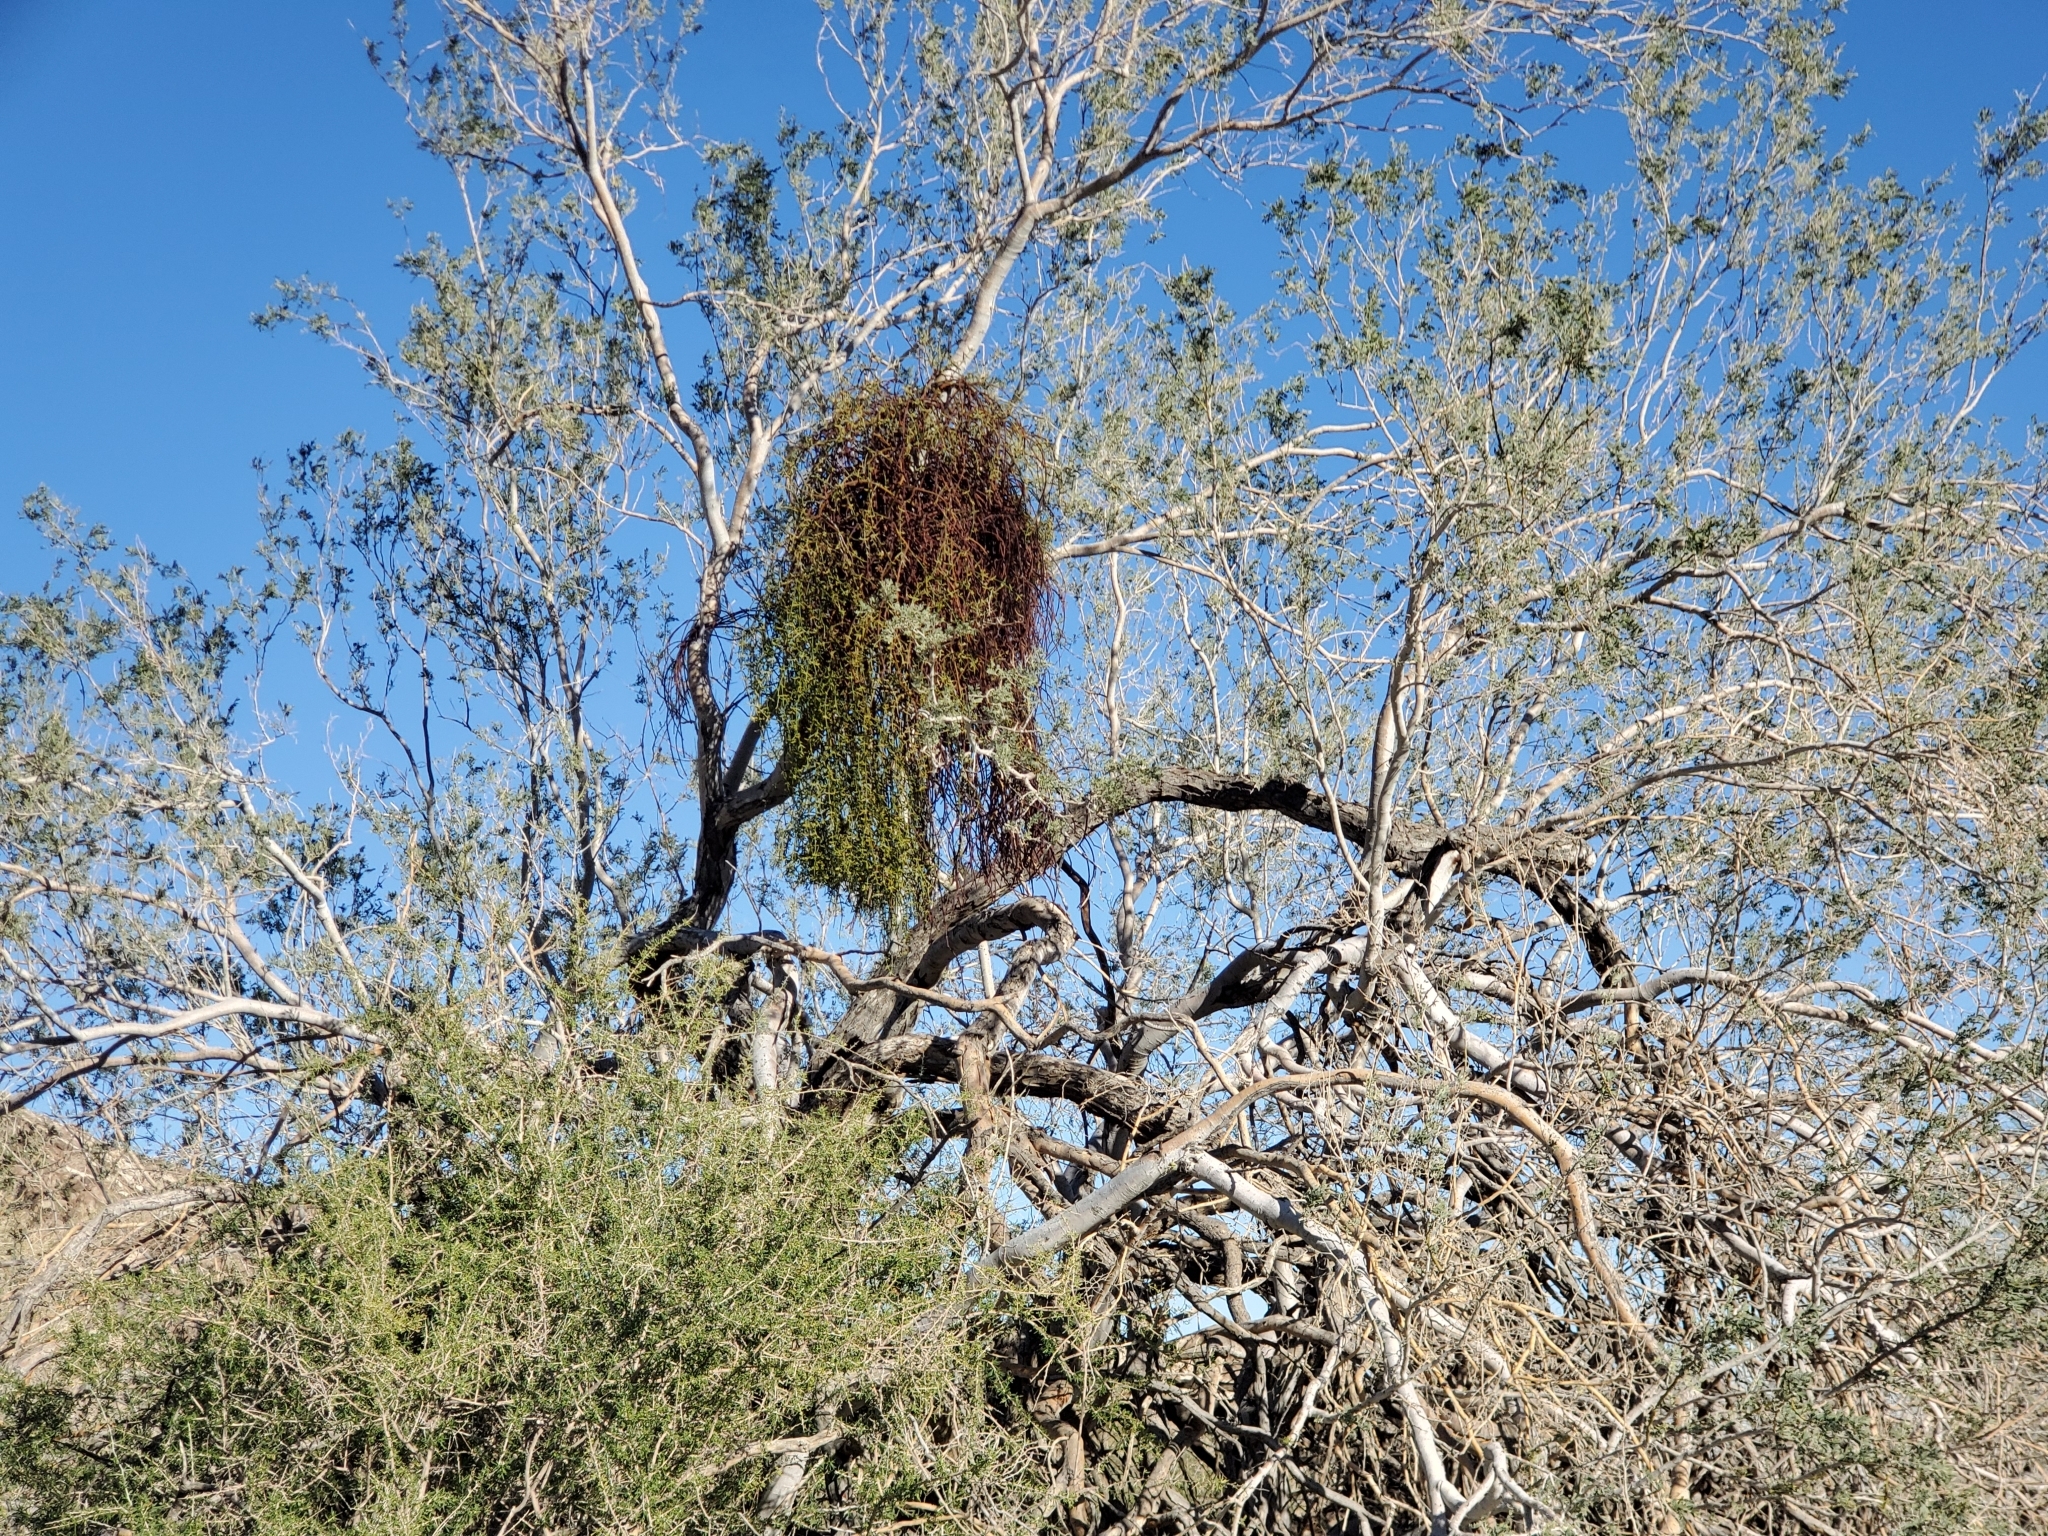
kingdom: Plantae
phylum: Tracheophyta
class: Magnoliopsida
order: Santalales
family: Viscaceae
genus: Phoradendron
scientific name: Phoradendron californicum
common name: Acacia mistletoe
